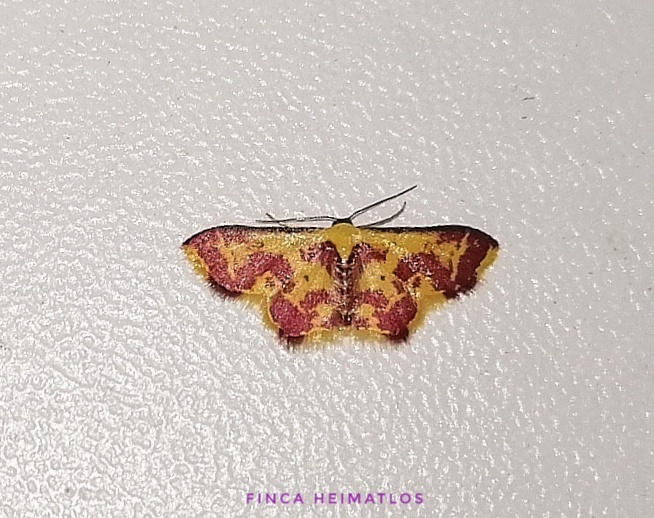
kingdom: Animalia
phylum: Arthropoda
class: Insecta
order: Lepidoptera
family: Geometridae
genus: Tricentrogyna
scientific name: Tricentrogyna colligata
